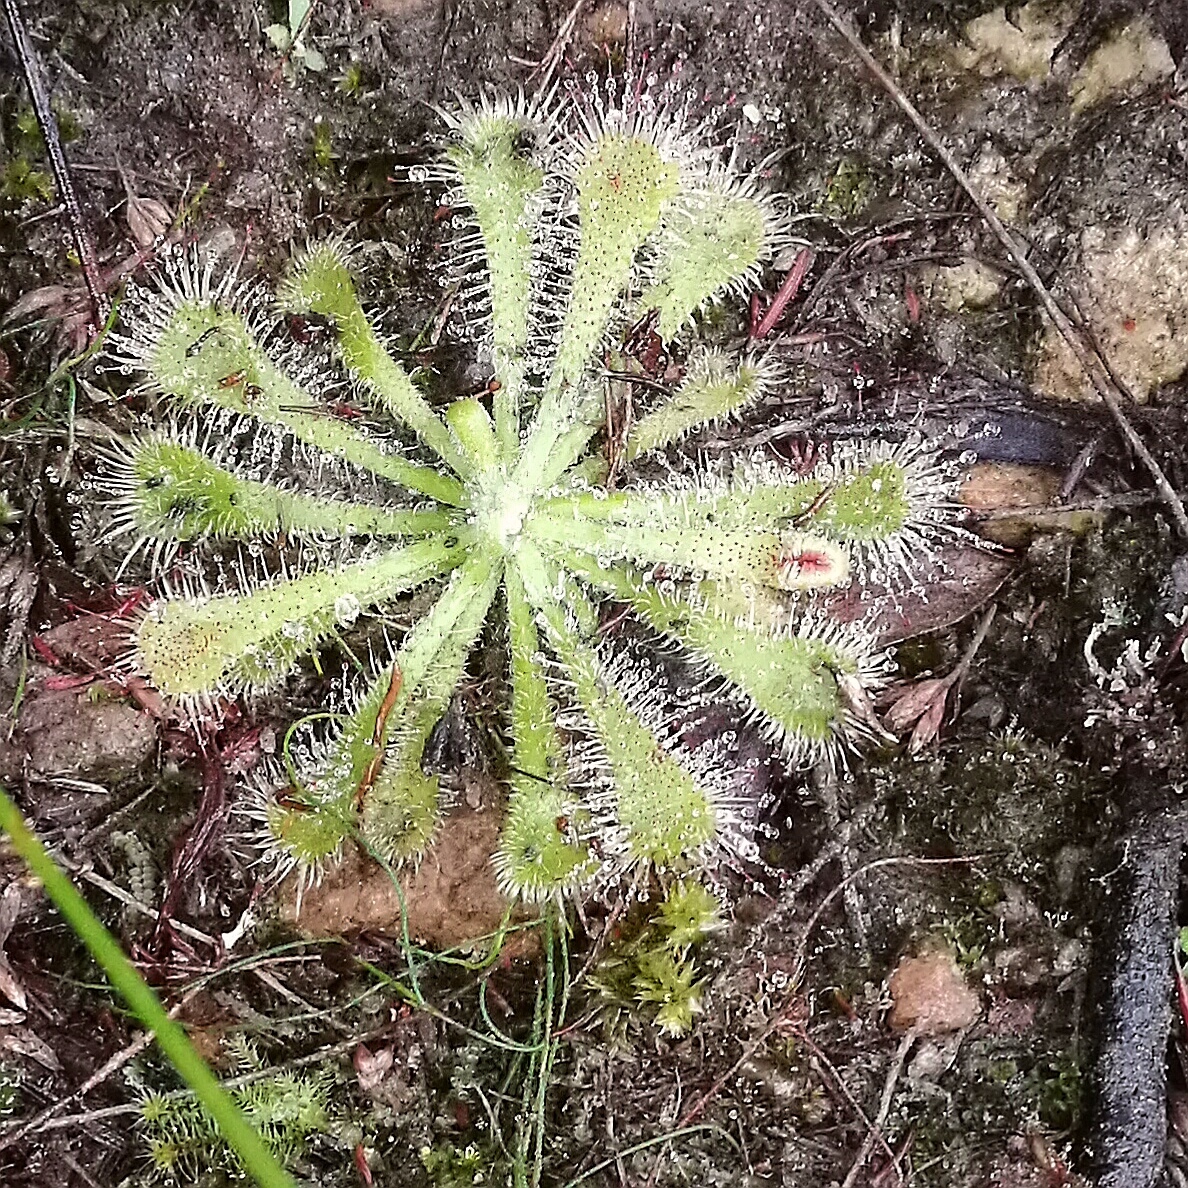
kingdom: Plantae
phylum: Tracheophyta
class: Magnoliopsida
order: Caryophyllales
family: Droseraceae
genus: Drosera
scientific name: Drosera natalensis
